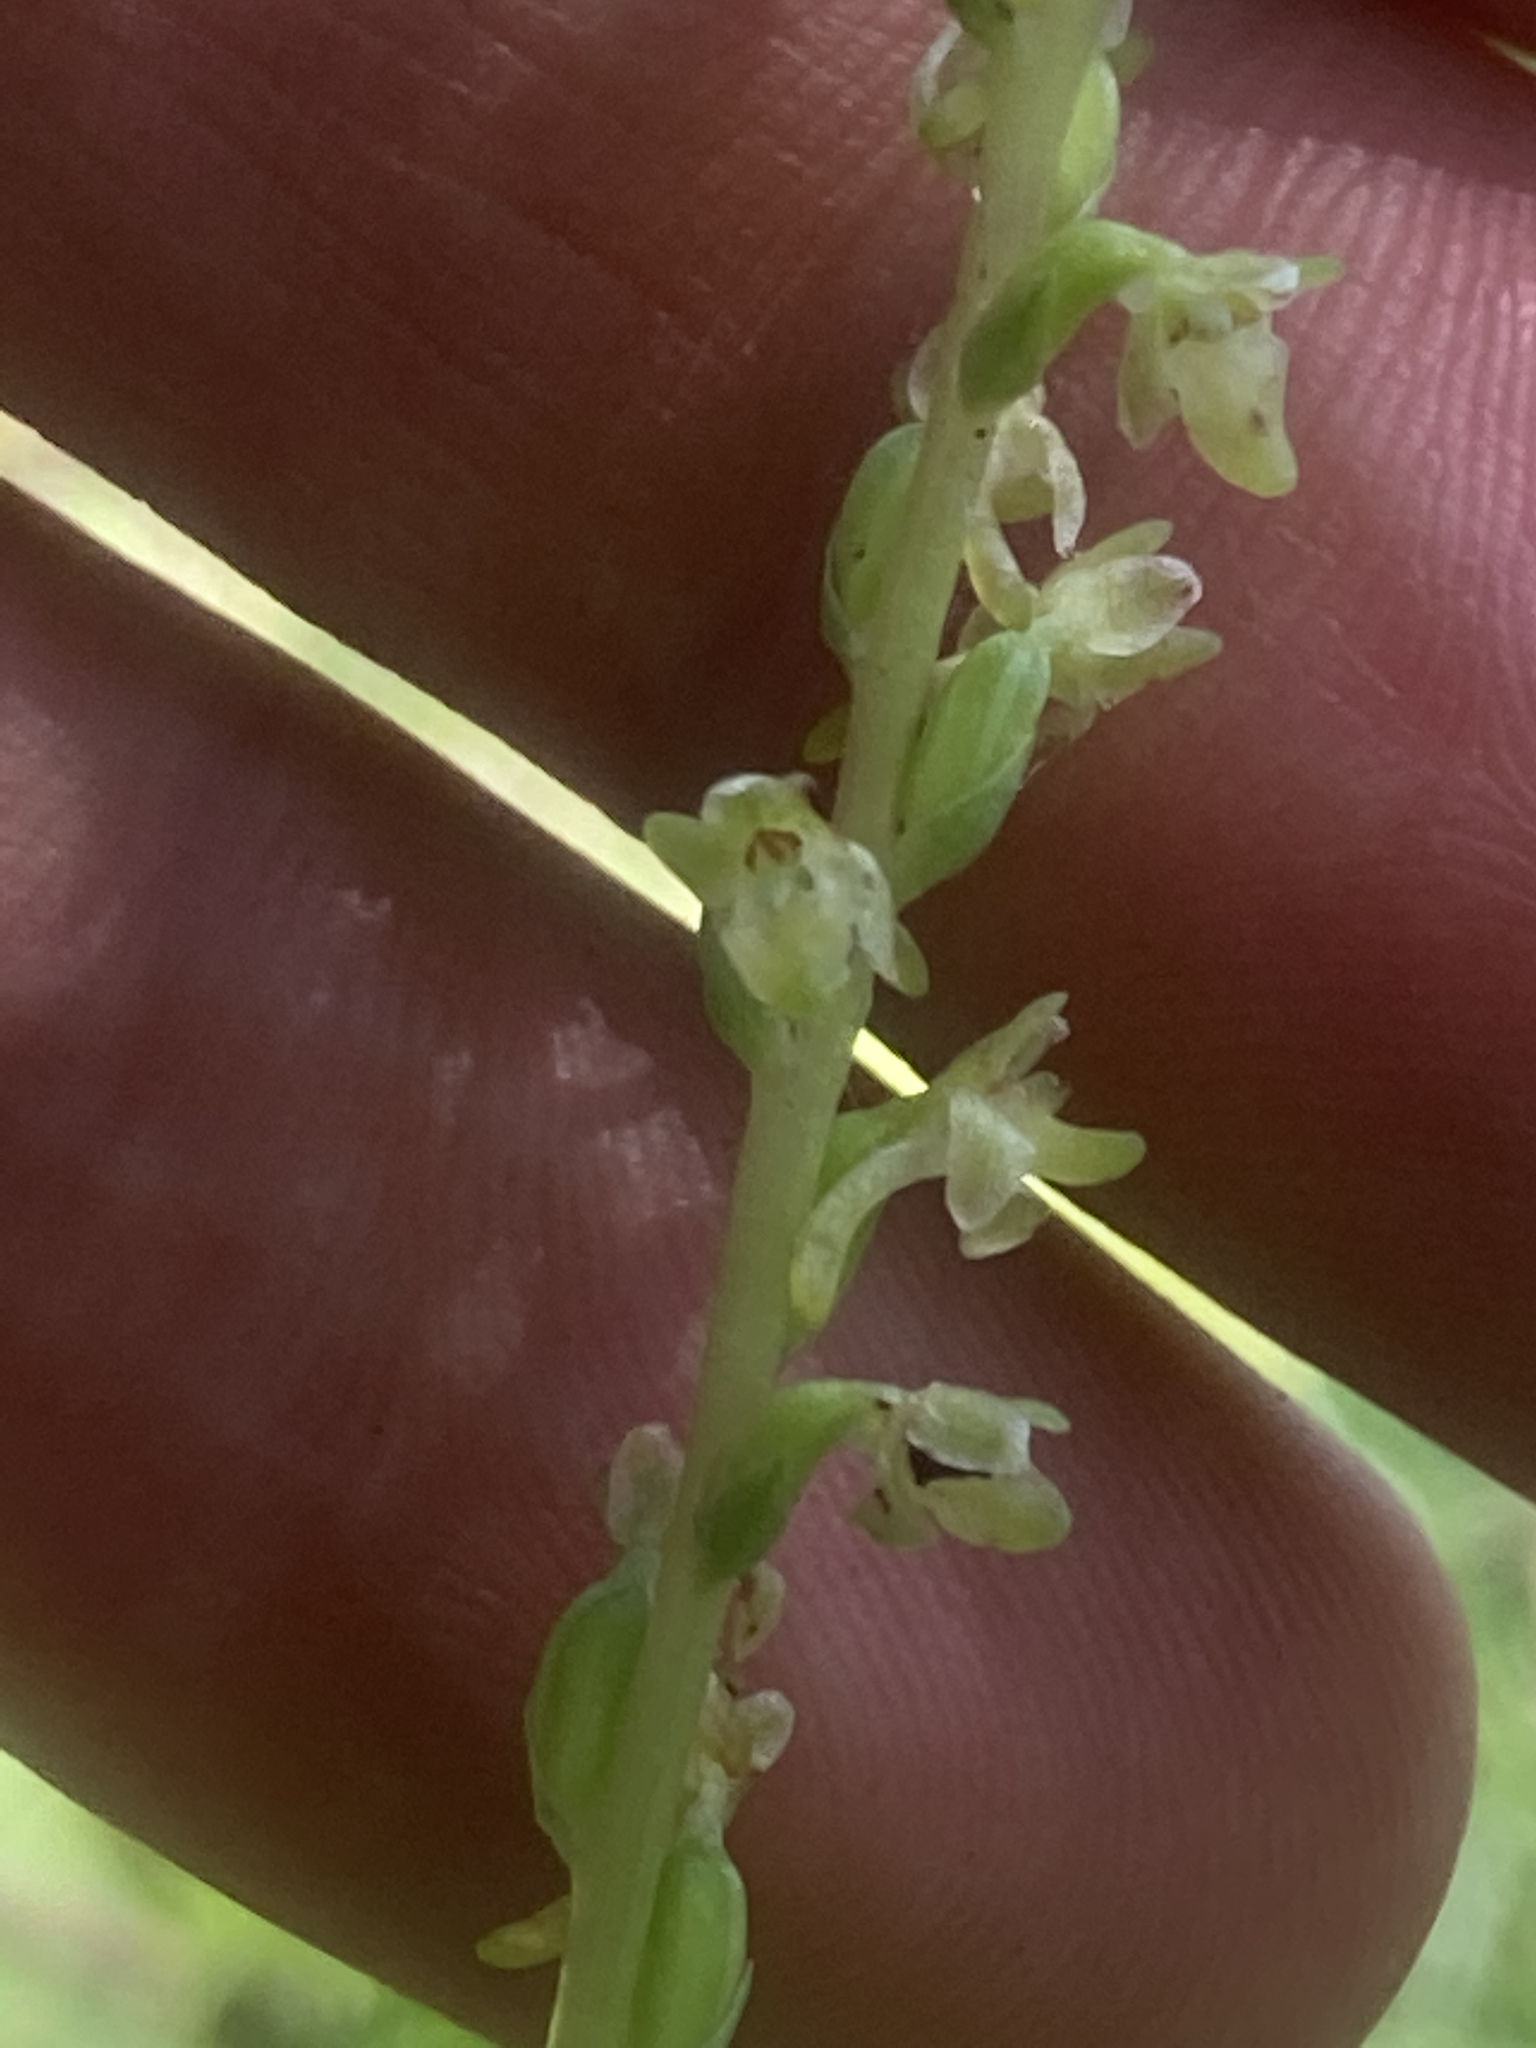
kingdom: Plantae
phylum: Tracheophyta
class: Liliopsida
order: Asparagales
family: Orchidaceae
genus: Platanthera
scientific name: Platanthera unalascensis
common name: Alaska bog orchid
